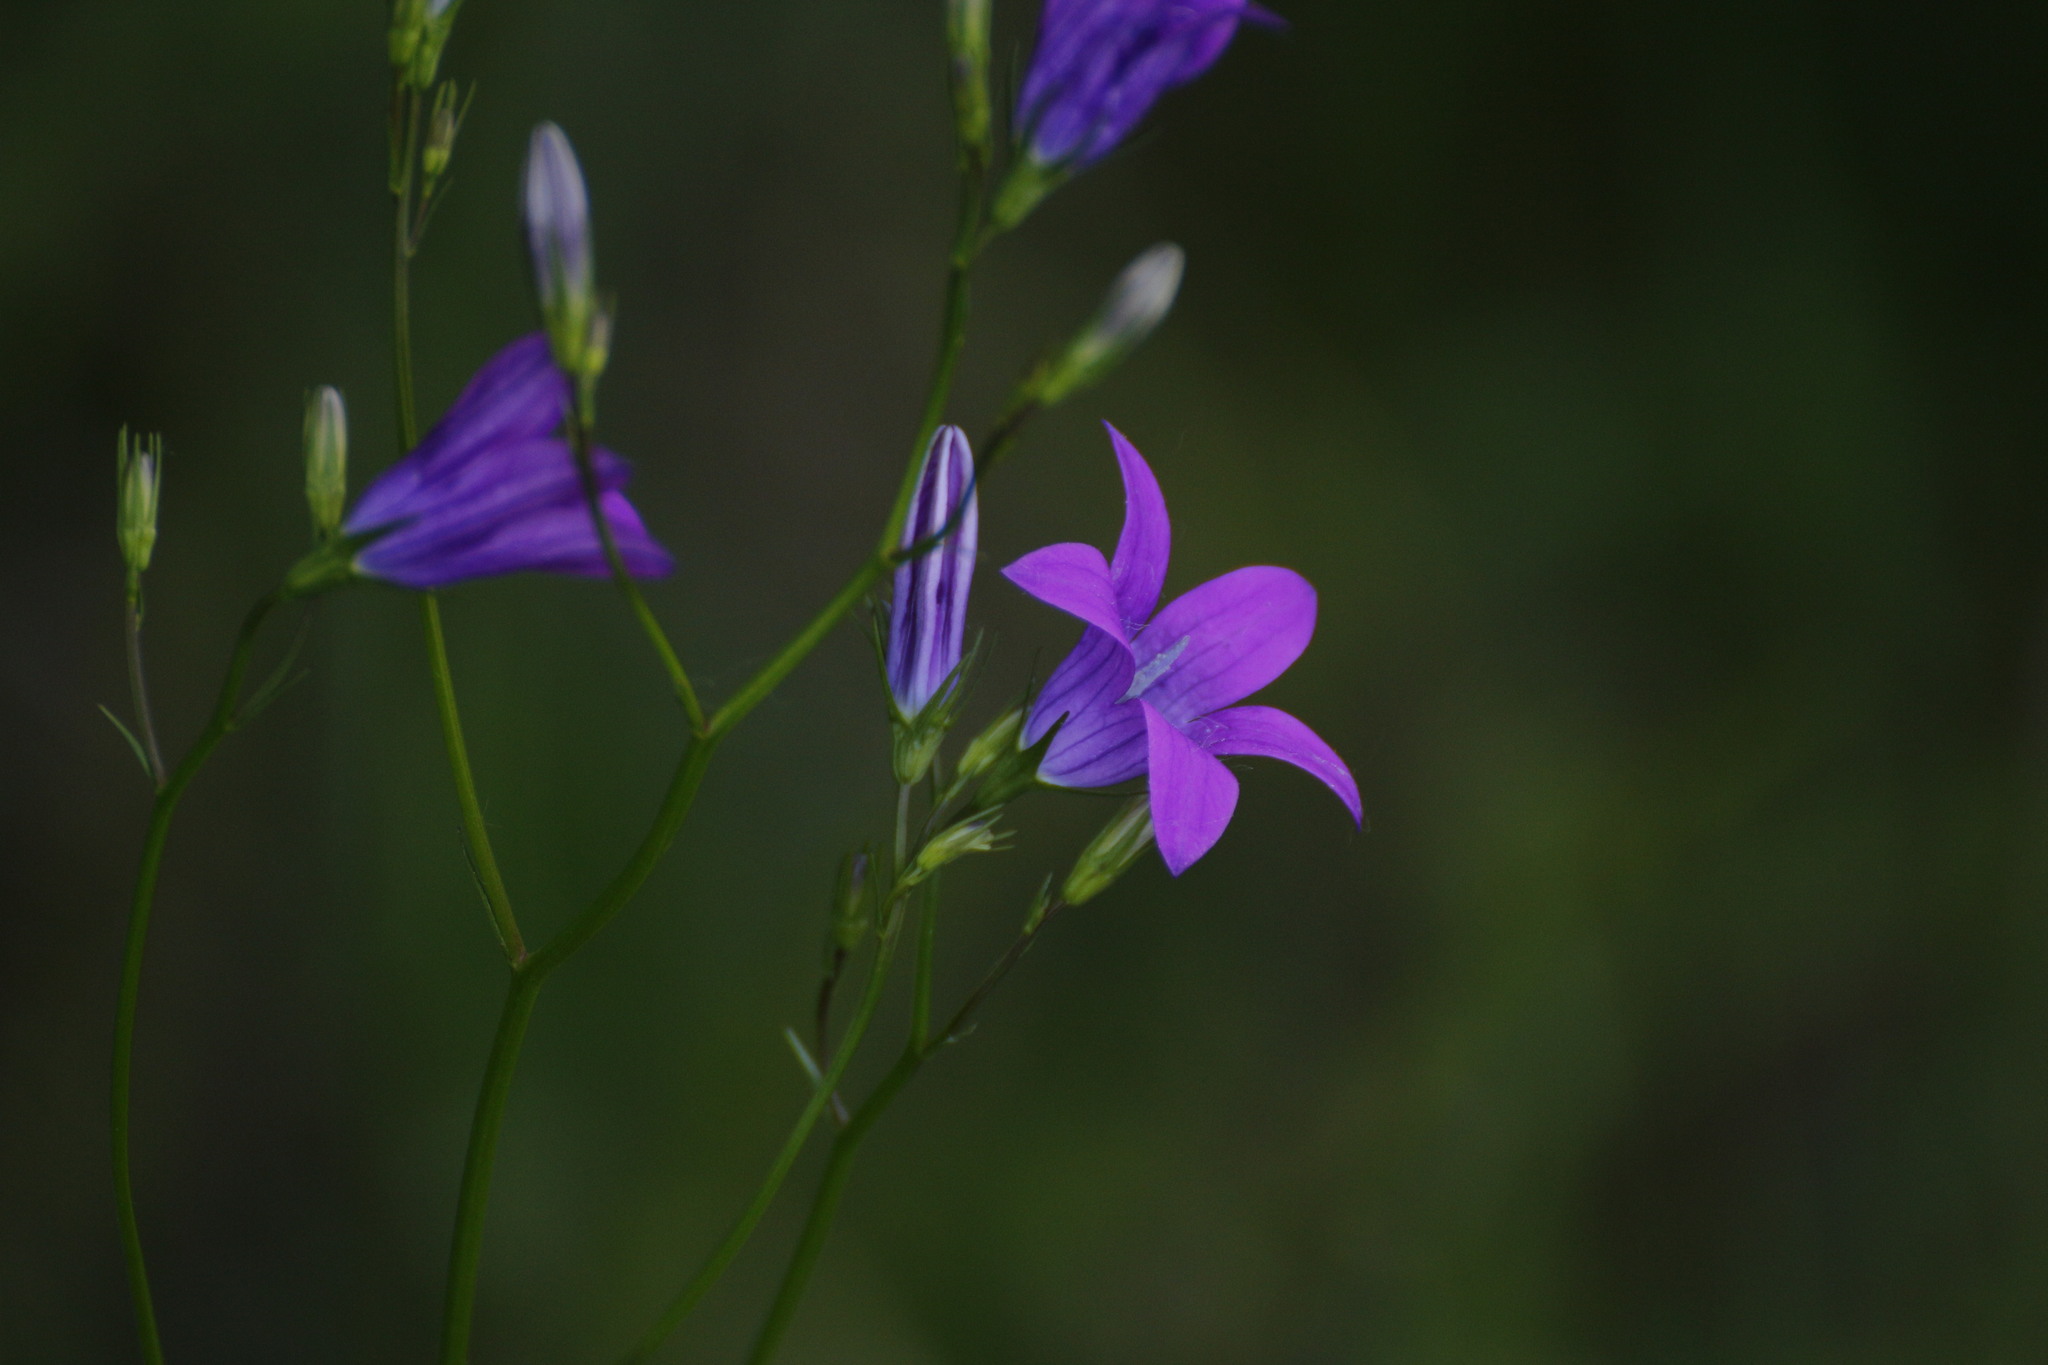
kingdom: Plantae
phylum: Tracheophyta
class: Magnoliopsida
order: Asterales
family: Campanulaceae
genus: Campanula
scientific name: Campanula patula
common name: Spreading bellflower
